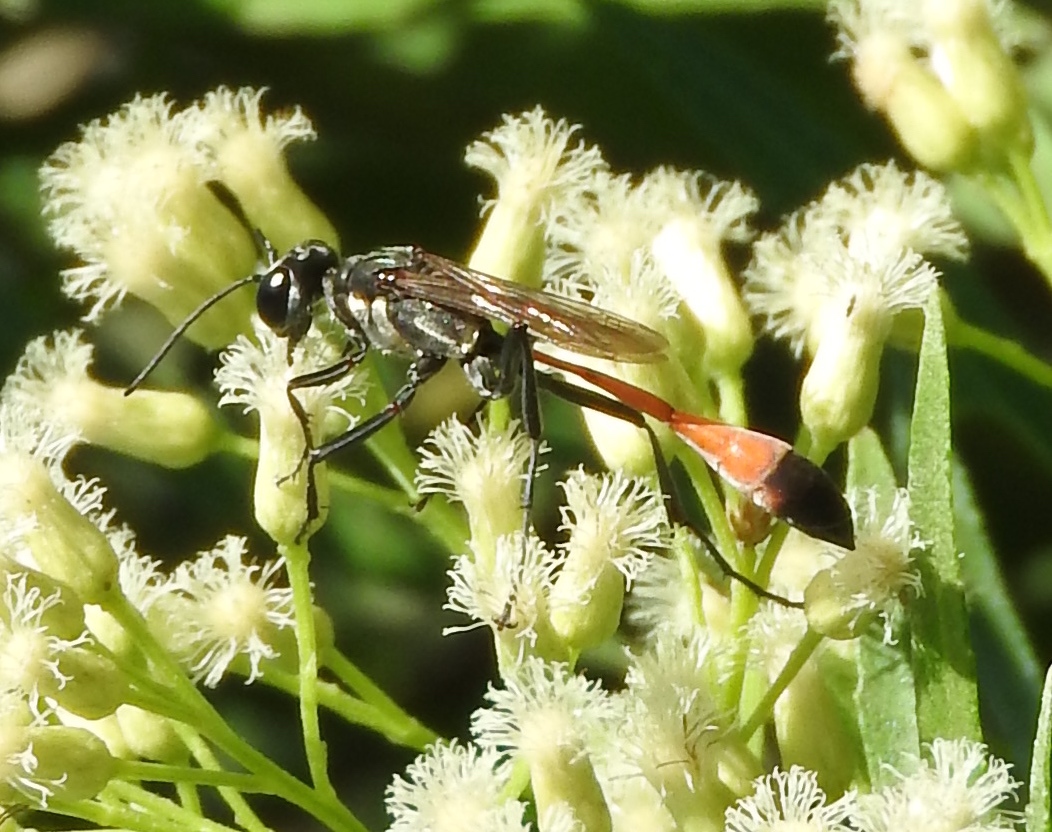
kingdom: Animalia
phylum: Arthropoda
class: Insecta
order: Hymenoptera
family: Sphecidae
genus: Ammophila
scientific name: Ammophila
